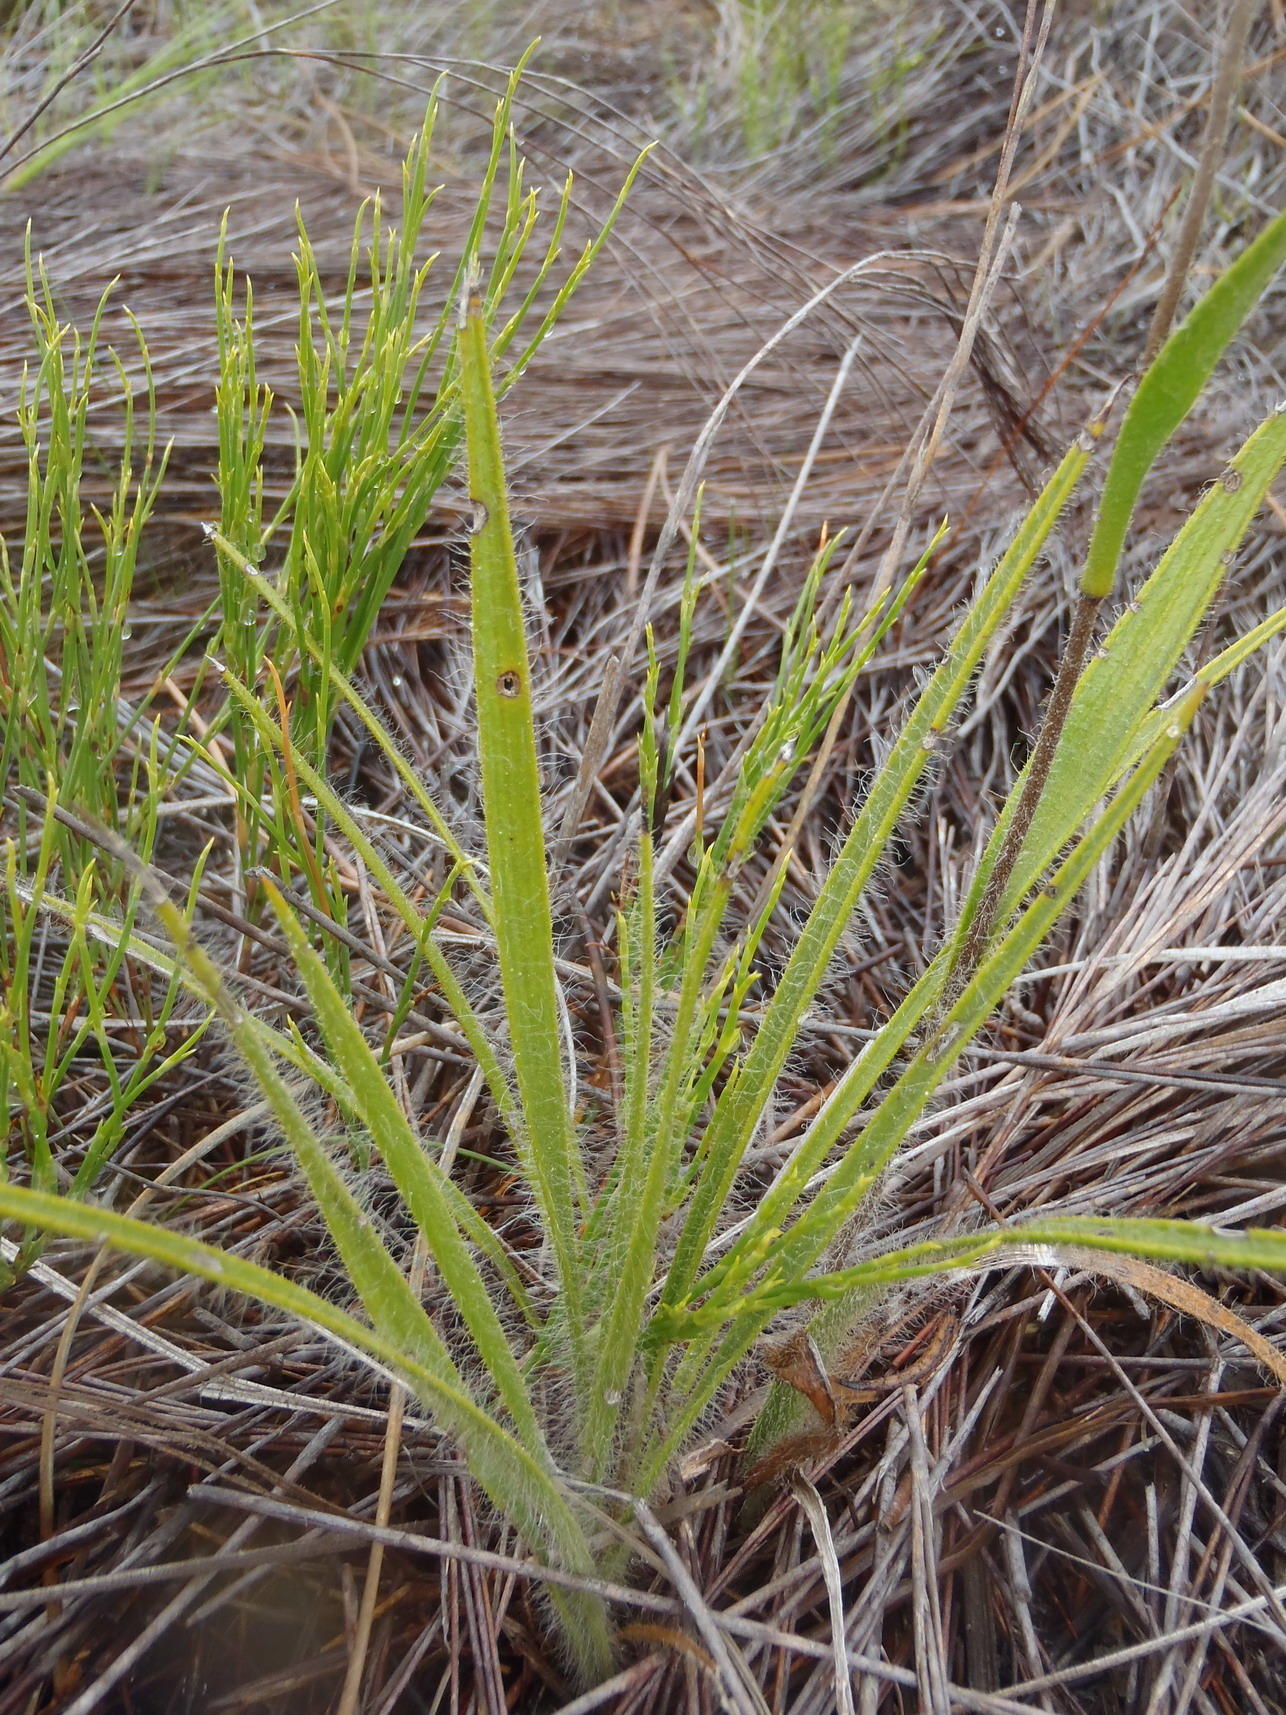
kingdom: Plantae
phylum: Tracheophyta
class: Magnoliopsida
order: Asterales
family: Asteraceae
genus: Corymbium
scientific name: Corymbium villosum
